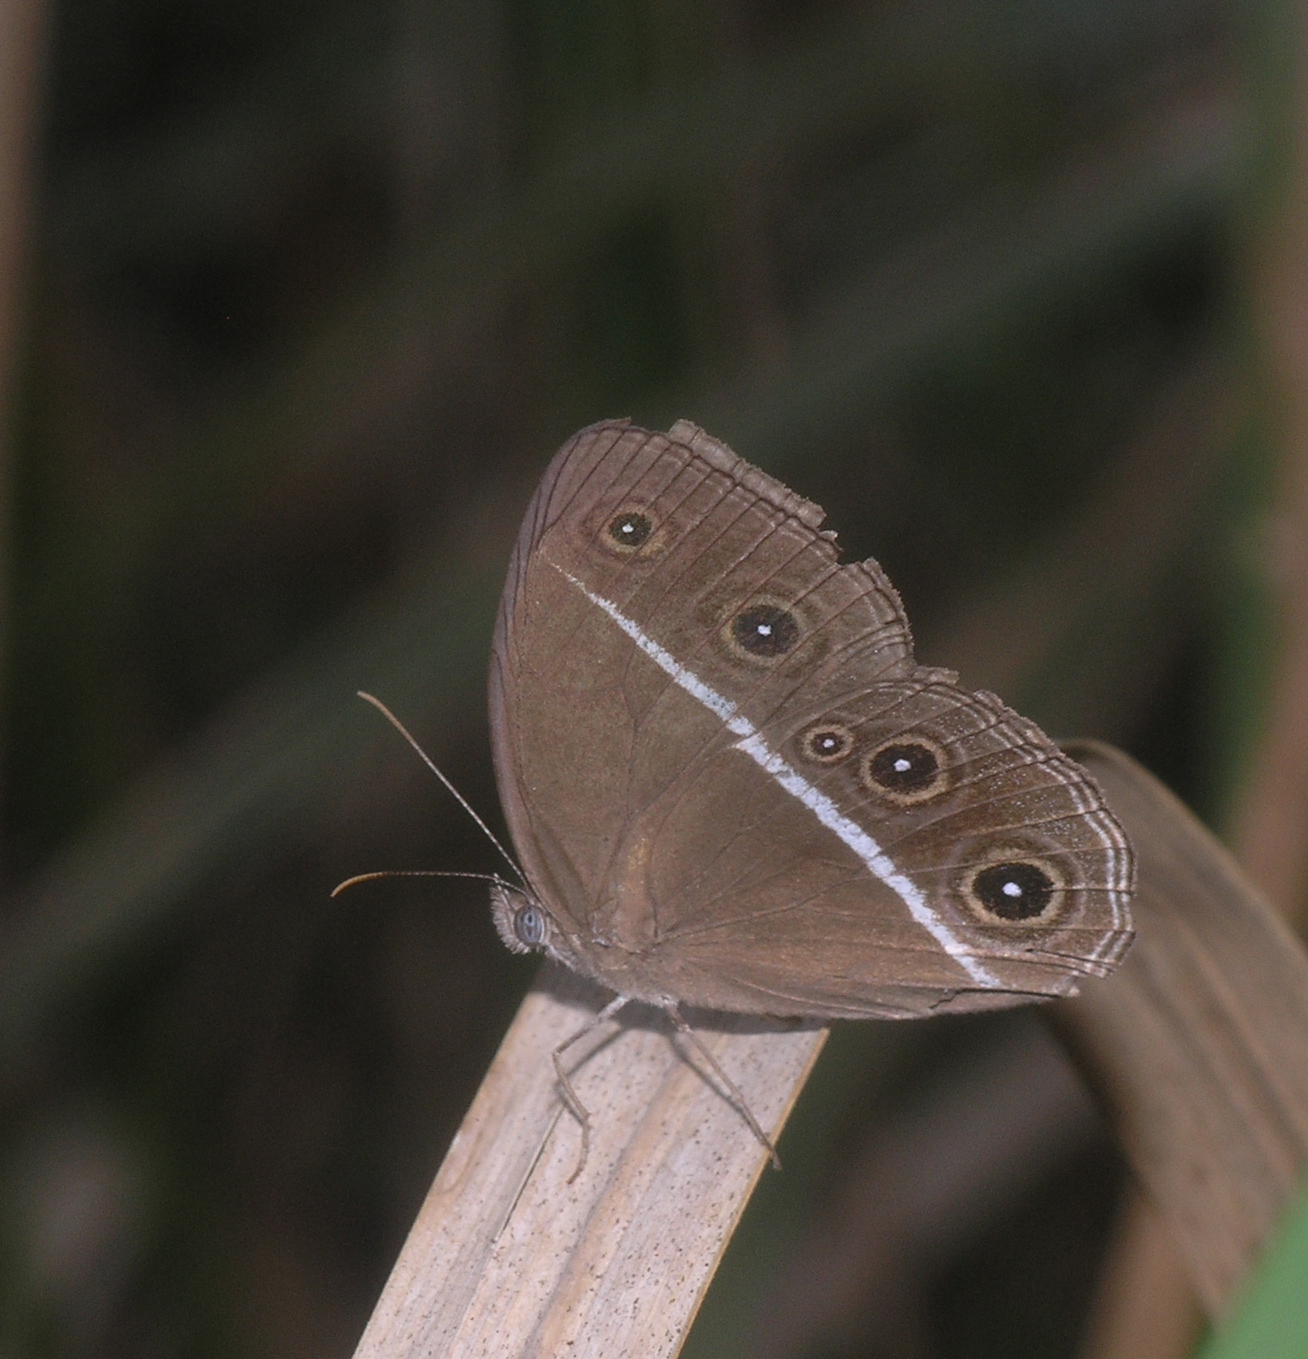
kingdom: Animalia
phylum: Arthropoda
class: Insecta
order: Lepidoptera
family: Nymphalidae
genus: Orsotriaena
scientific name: Orsotriaena medus
